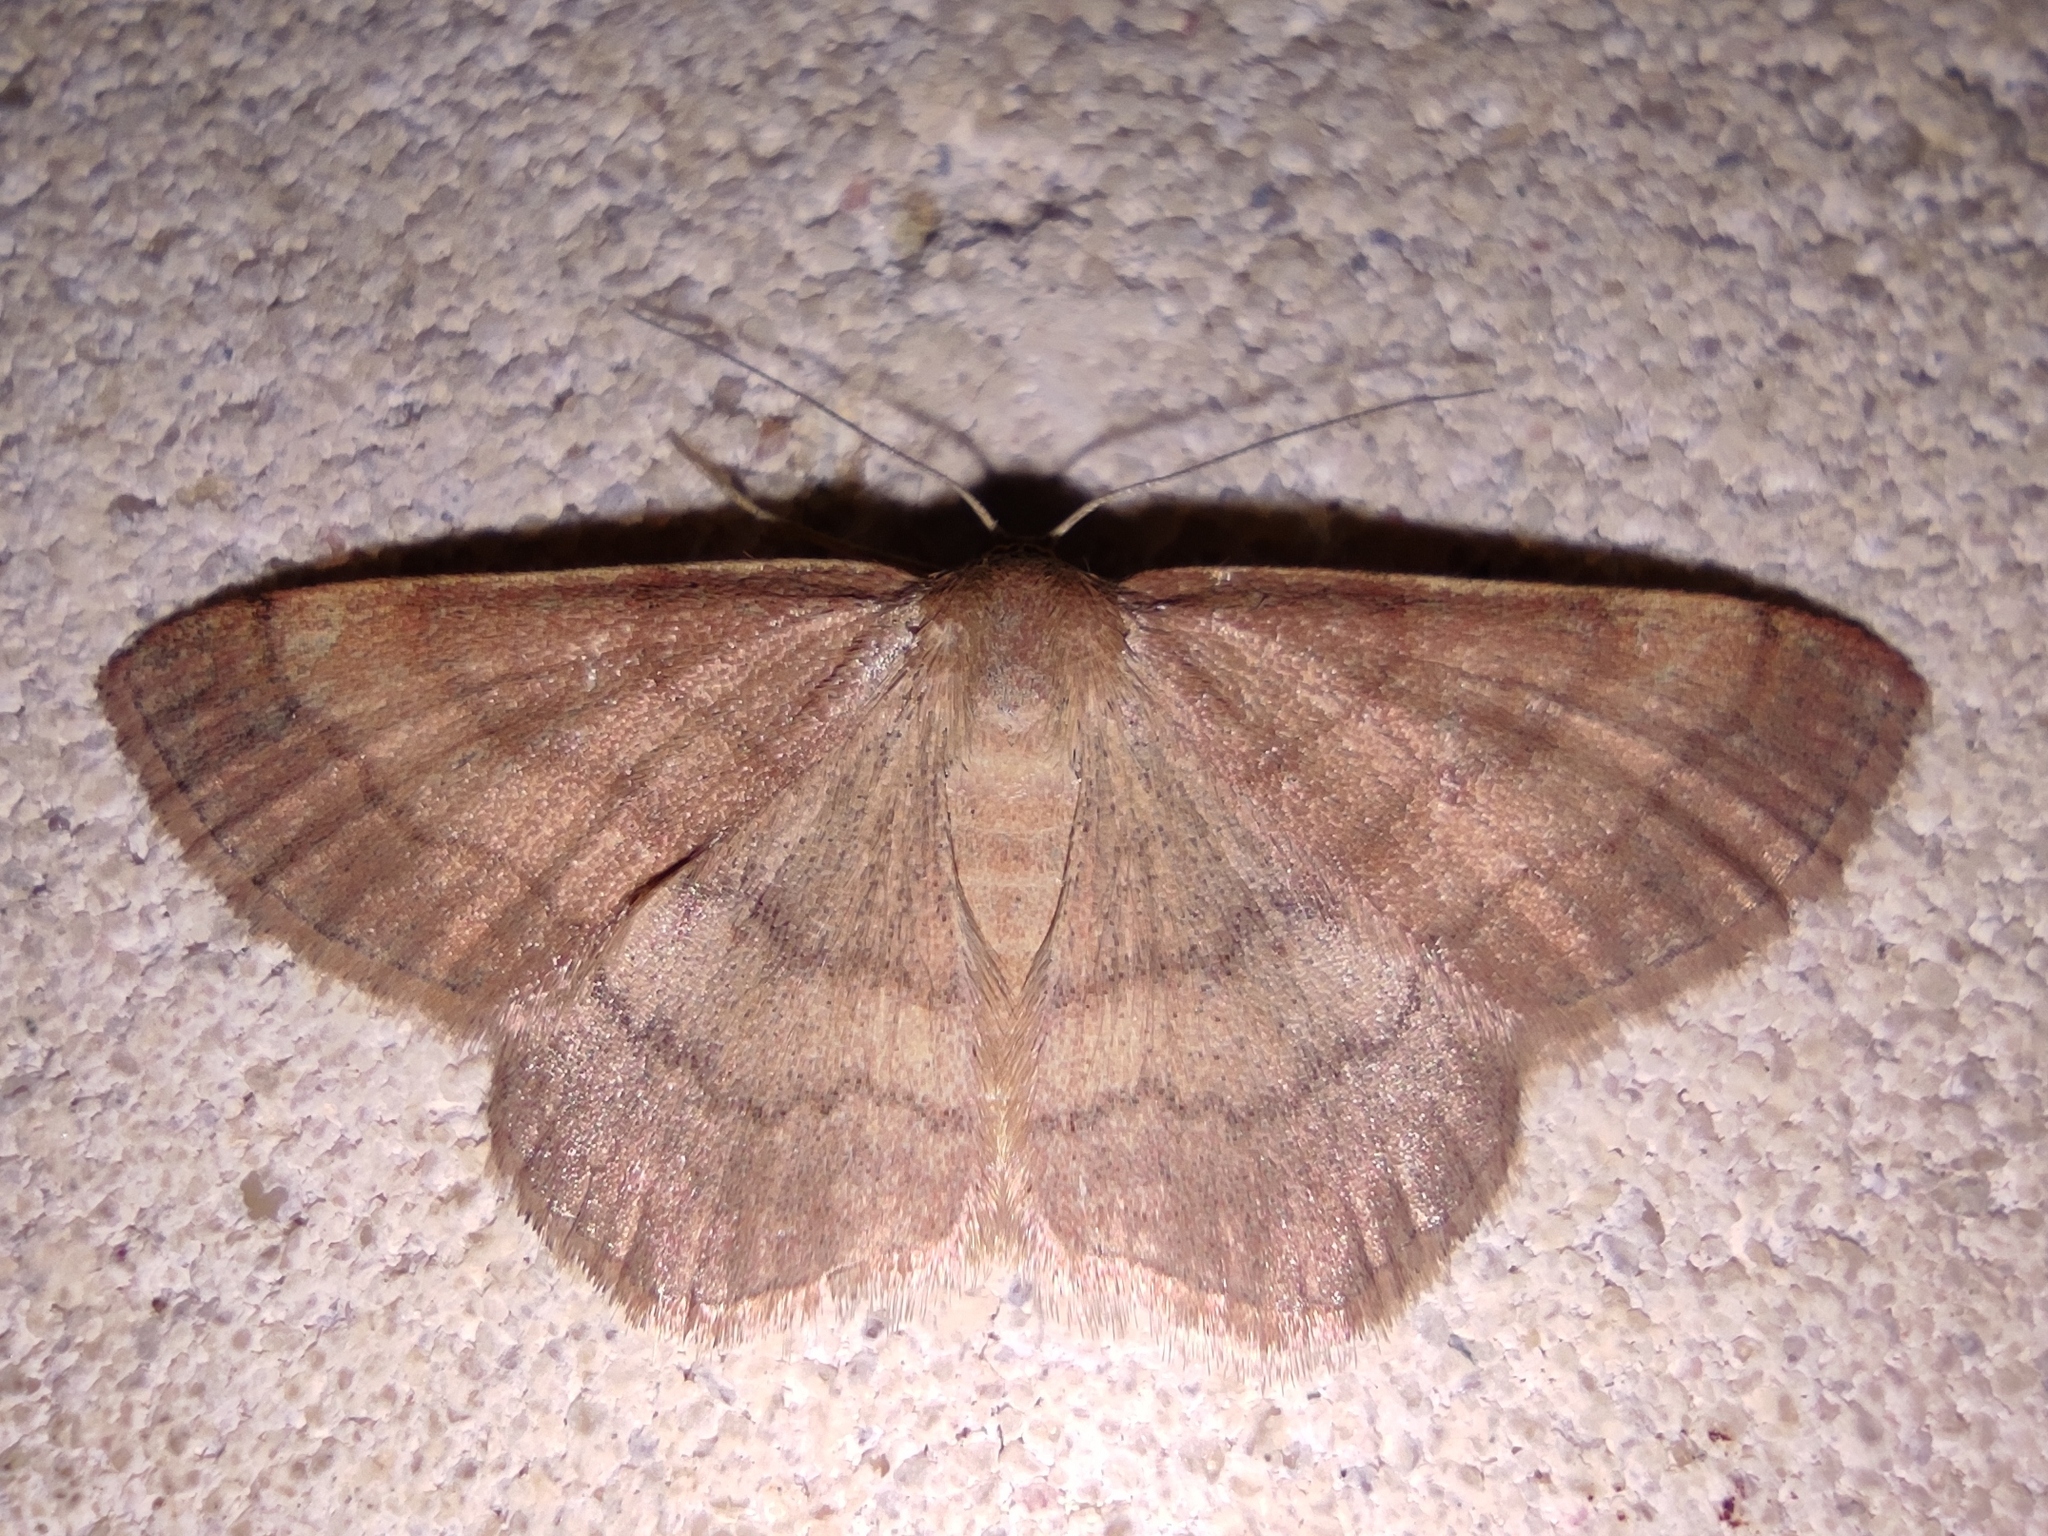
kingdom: Animalia
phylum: Arthropoda
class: Insecta
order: Lepidoptera
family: Geometridae
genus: Scopula
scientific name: Scopula rubiginata
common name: Tawny wave
